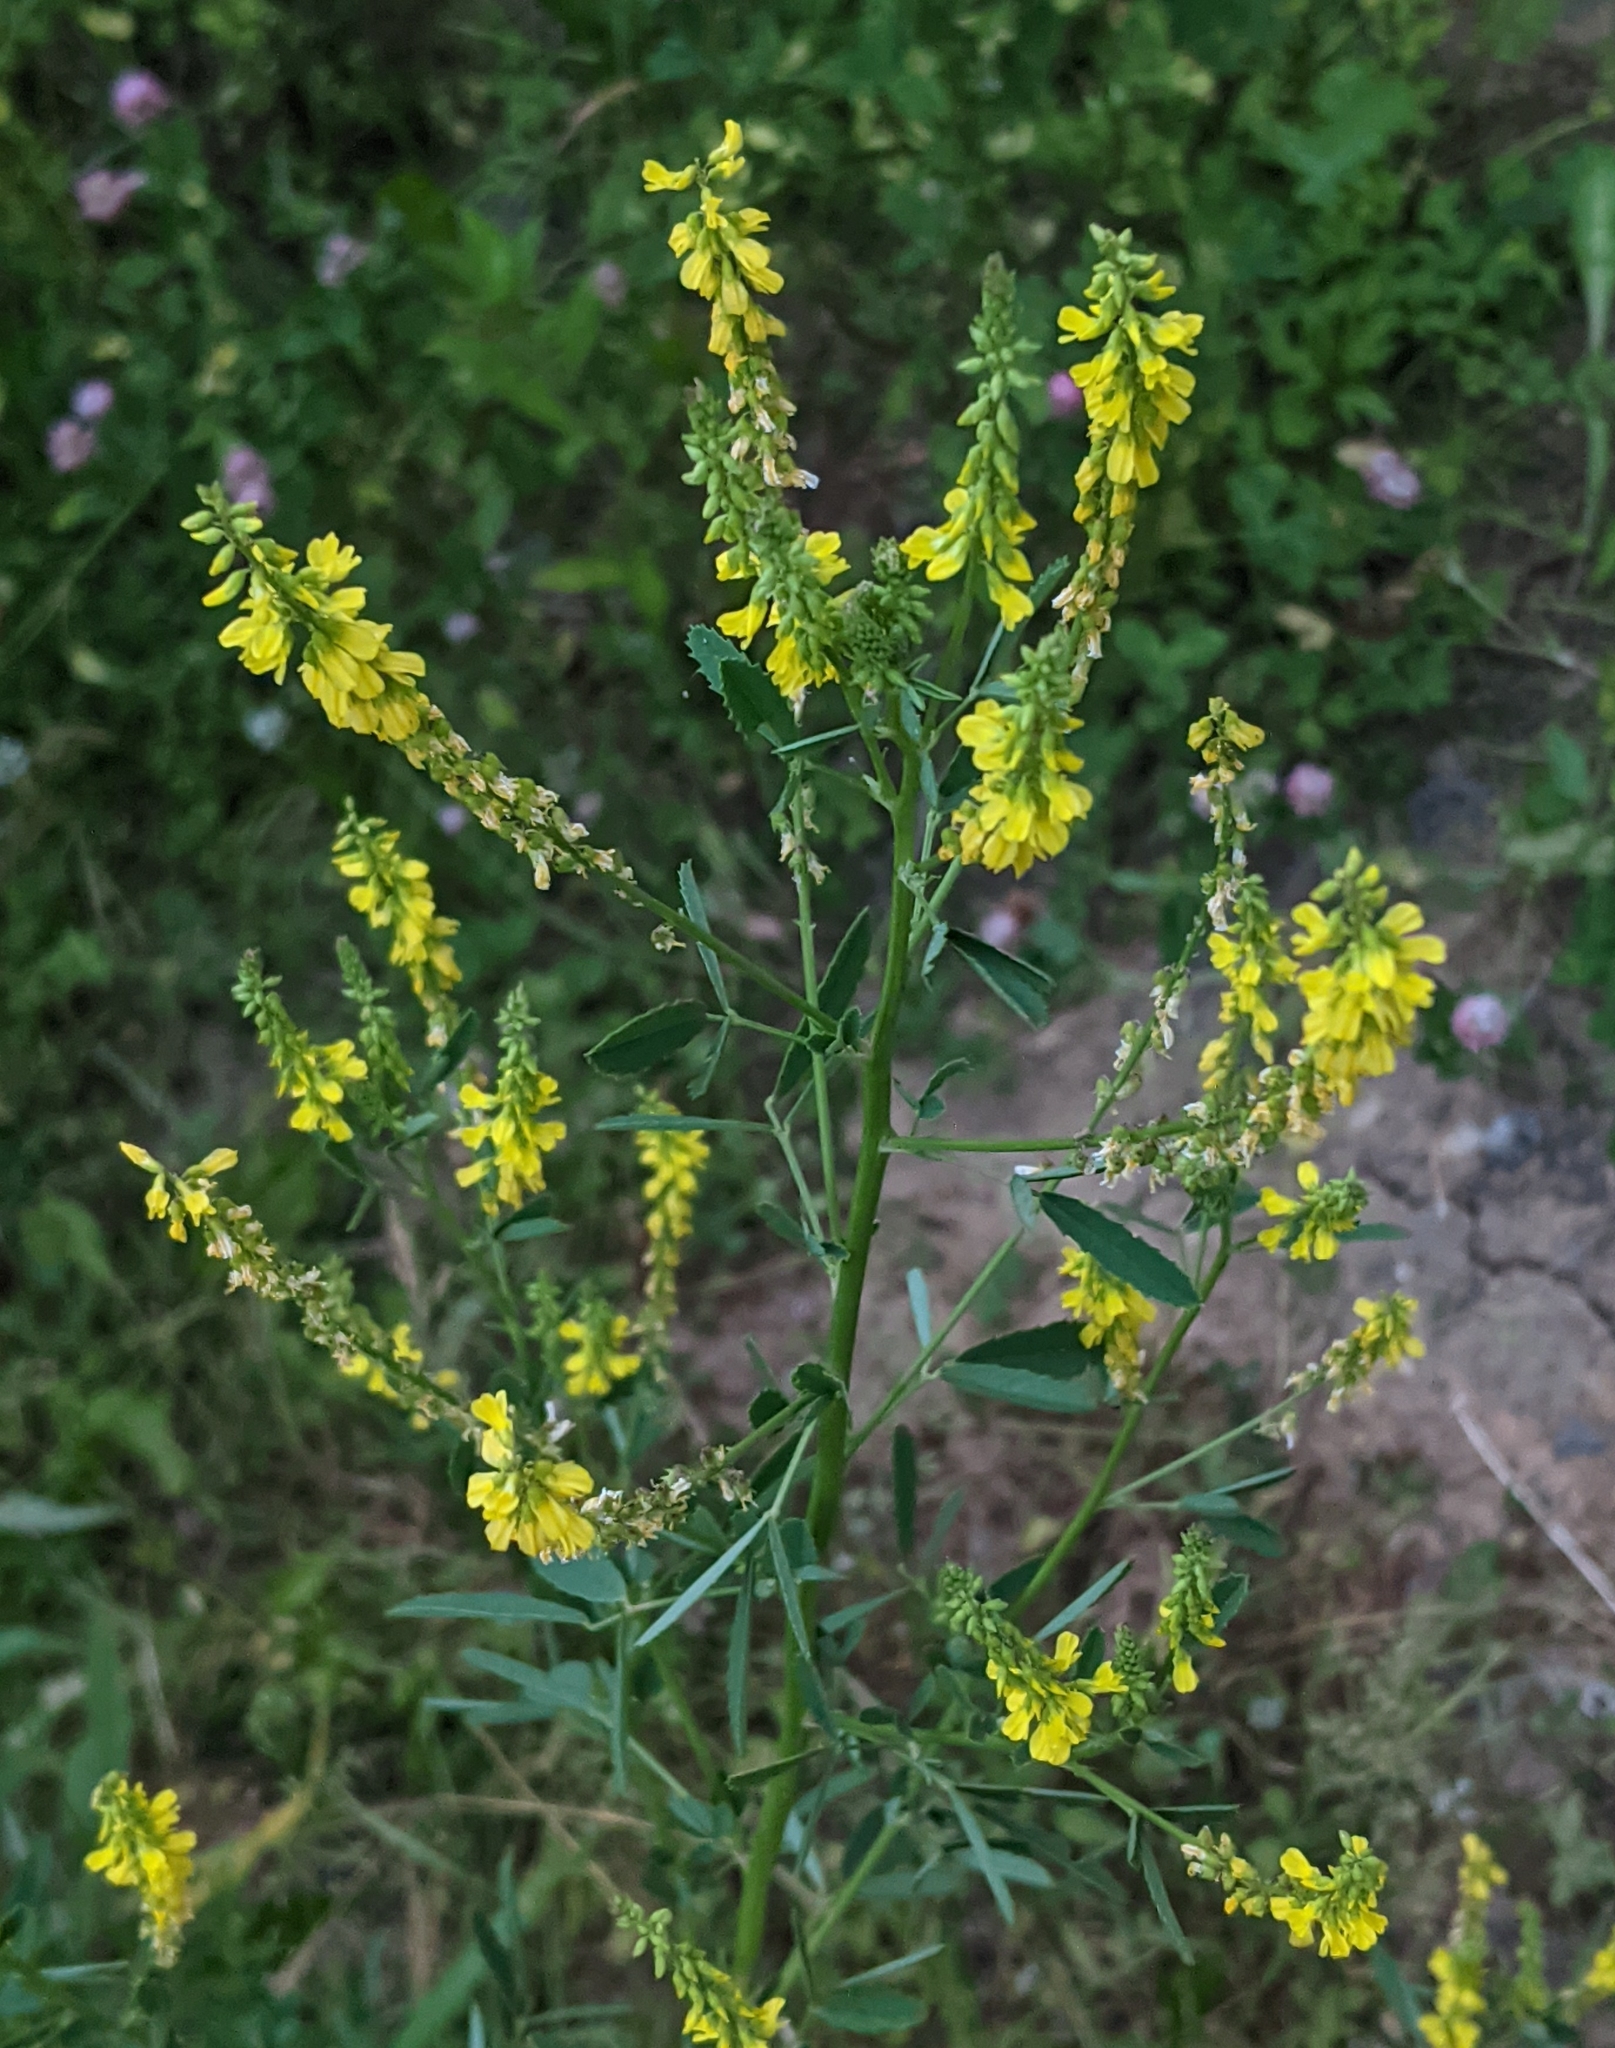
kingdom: Plantae
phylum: Tracheophyta
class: Magnoliopsida
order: Fabales
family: Fabaceae
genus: Melilotus
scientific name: Melilotus officinalis
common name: Sweetclover
